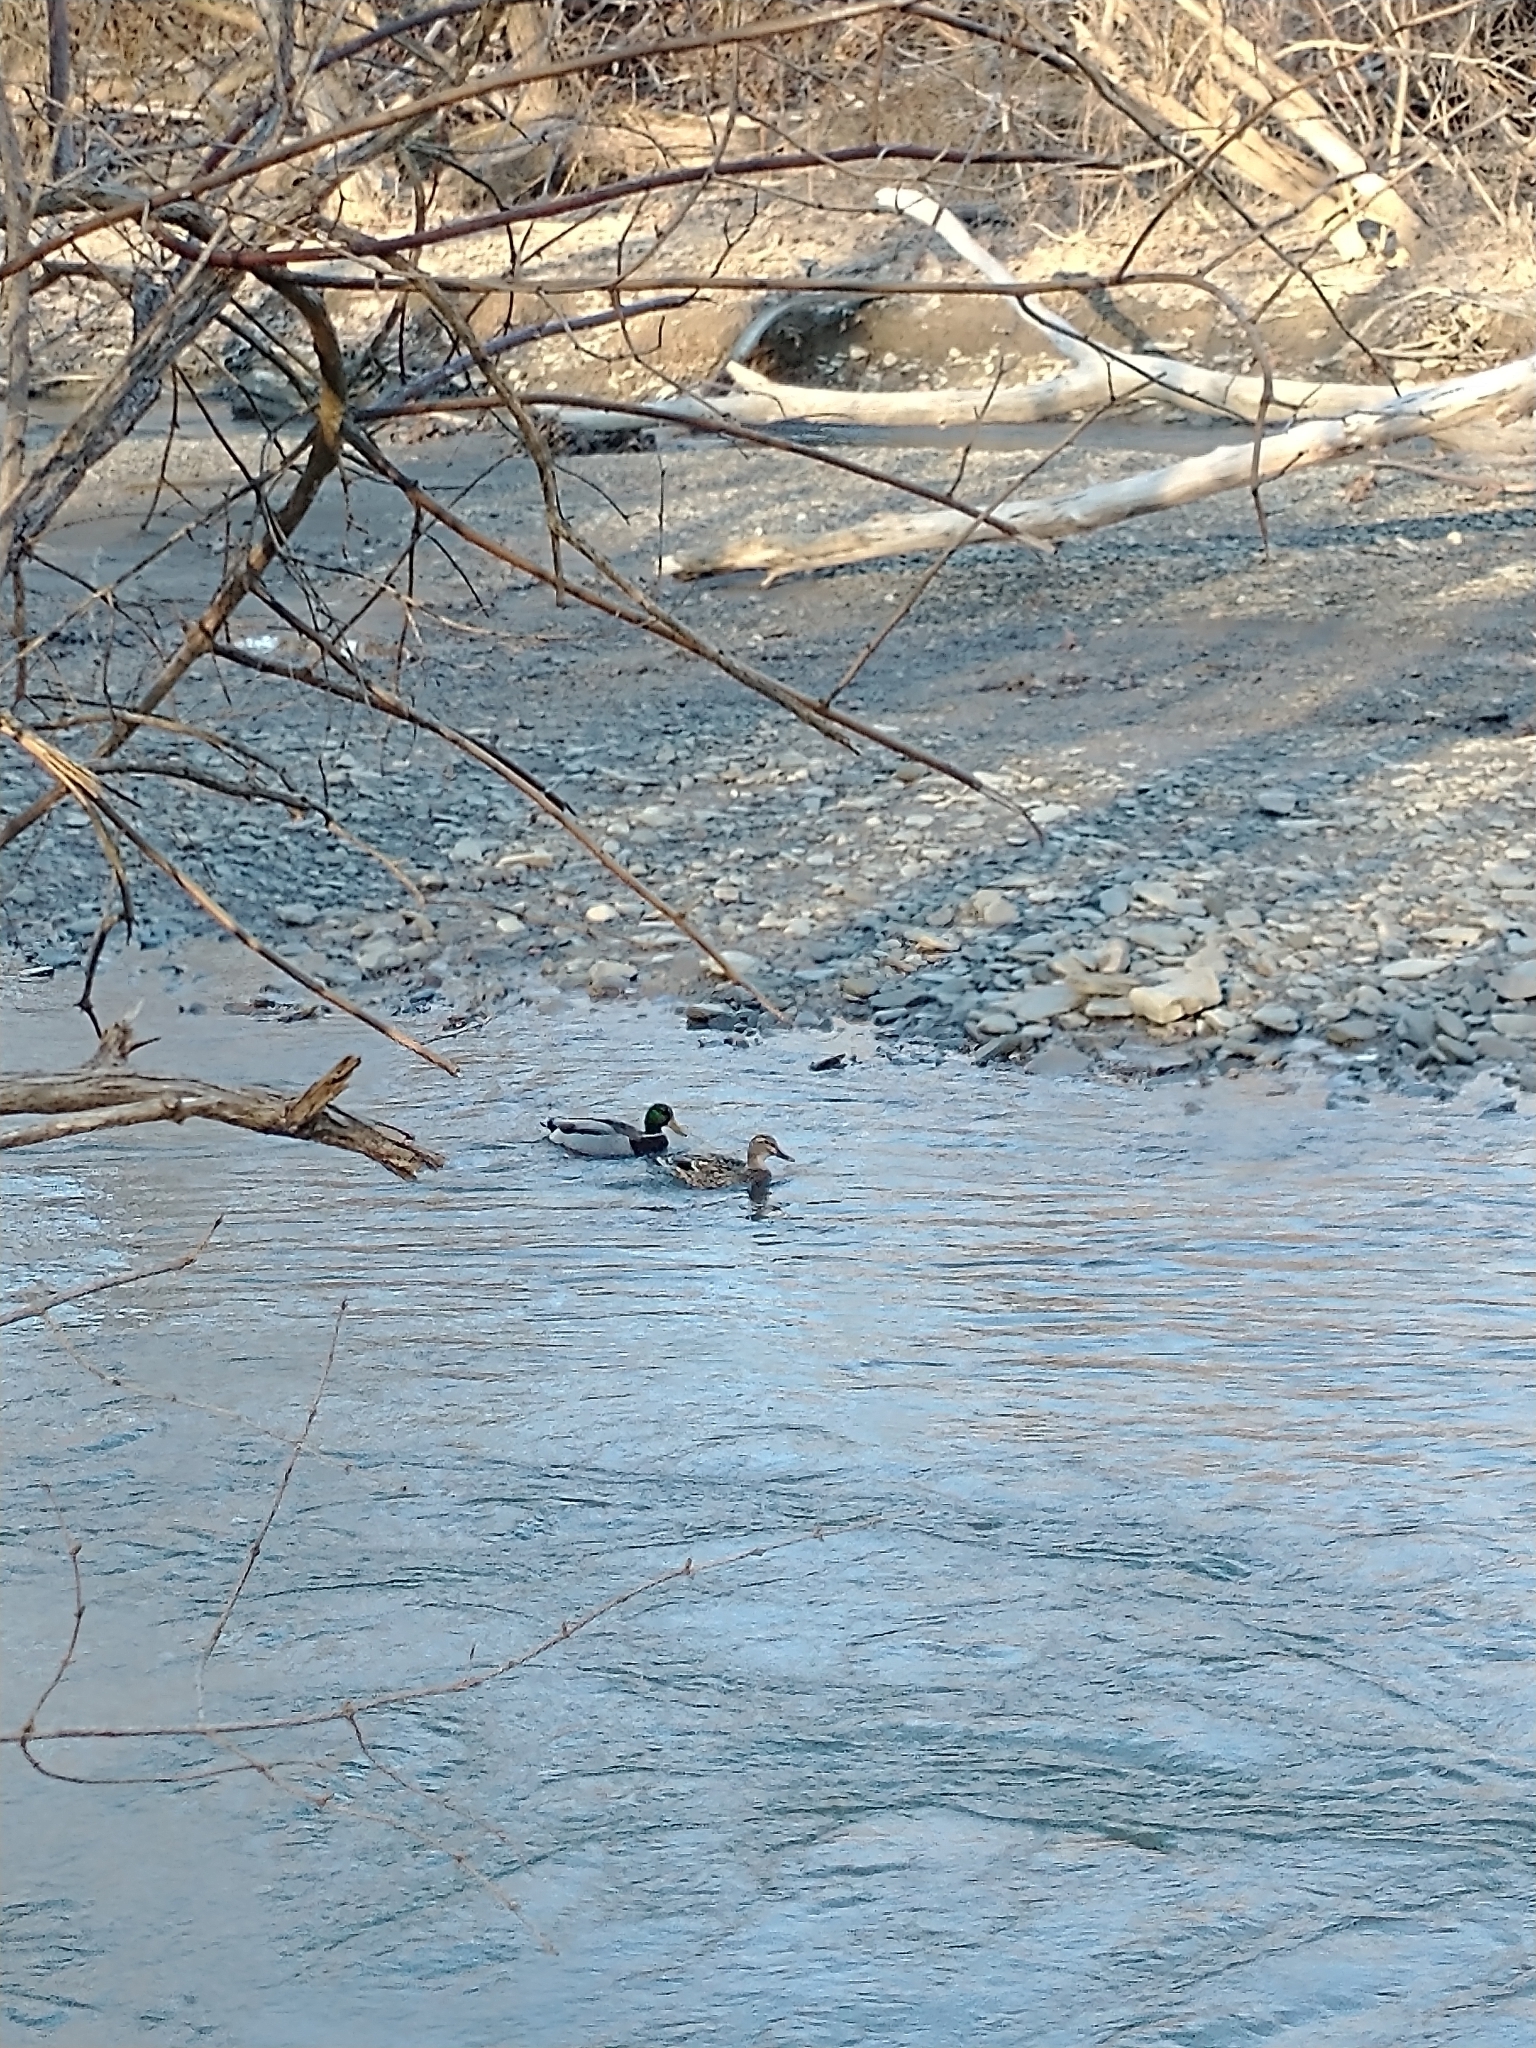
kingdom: Animalia
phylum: Chordata
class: Aves
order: Anseriformes
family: Anatidae
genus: Anas
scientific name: Anas platyrhynchos
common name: Mallard
